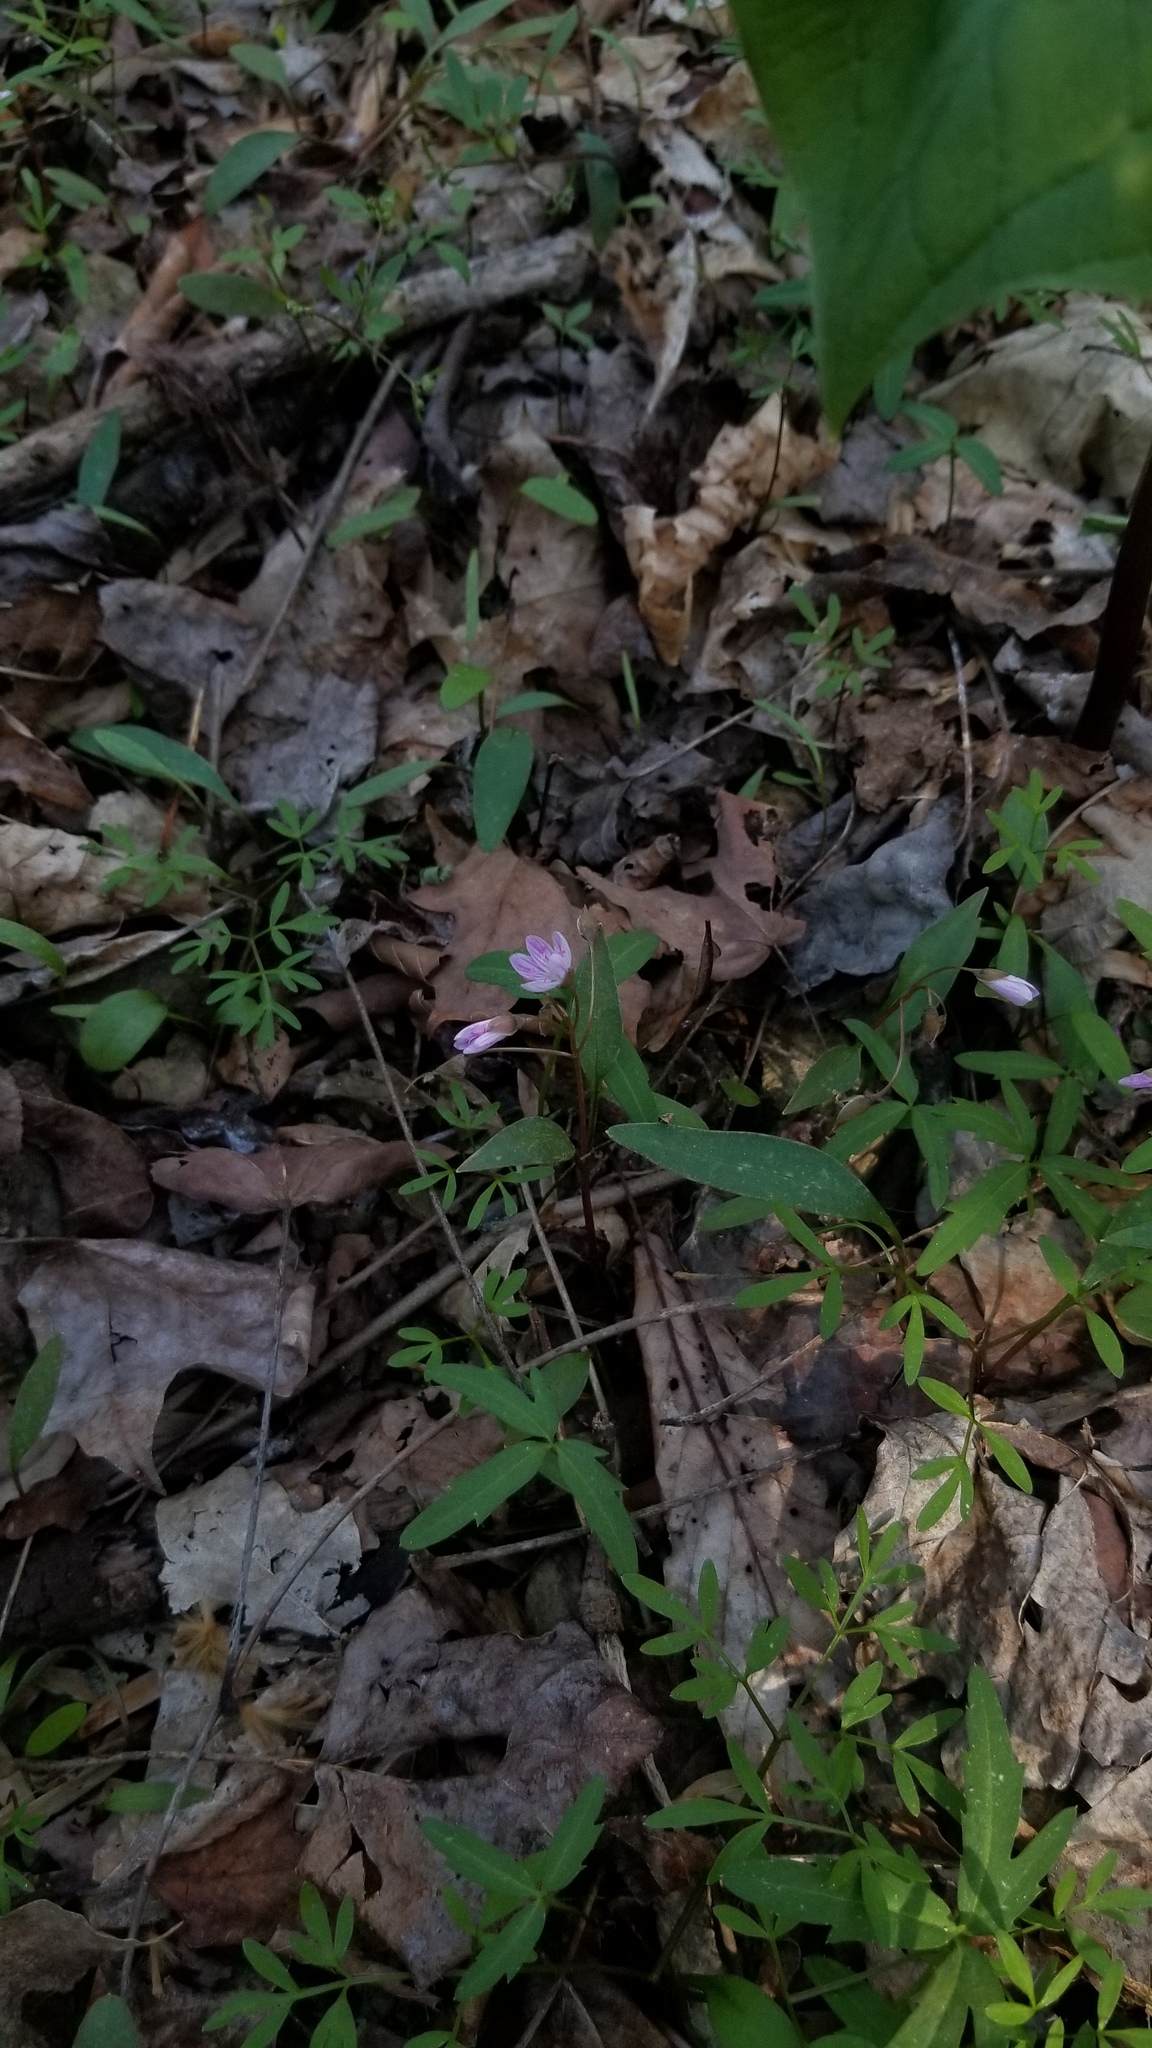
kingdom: Plantae
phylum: Tracheophyta
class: Magnoliopsida
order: Caryophyllales
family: Montiaceae
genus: Claytonia
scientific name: Claytonia caroliniana
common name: Carolina spring beauty
